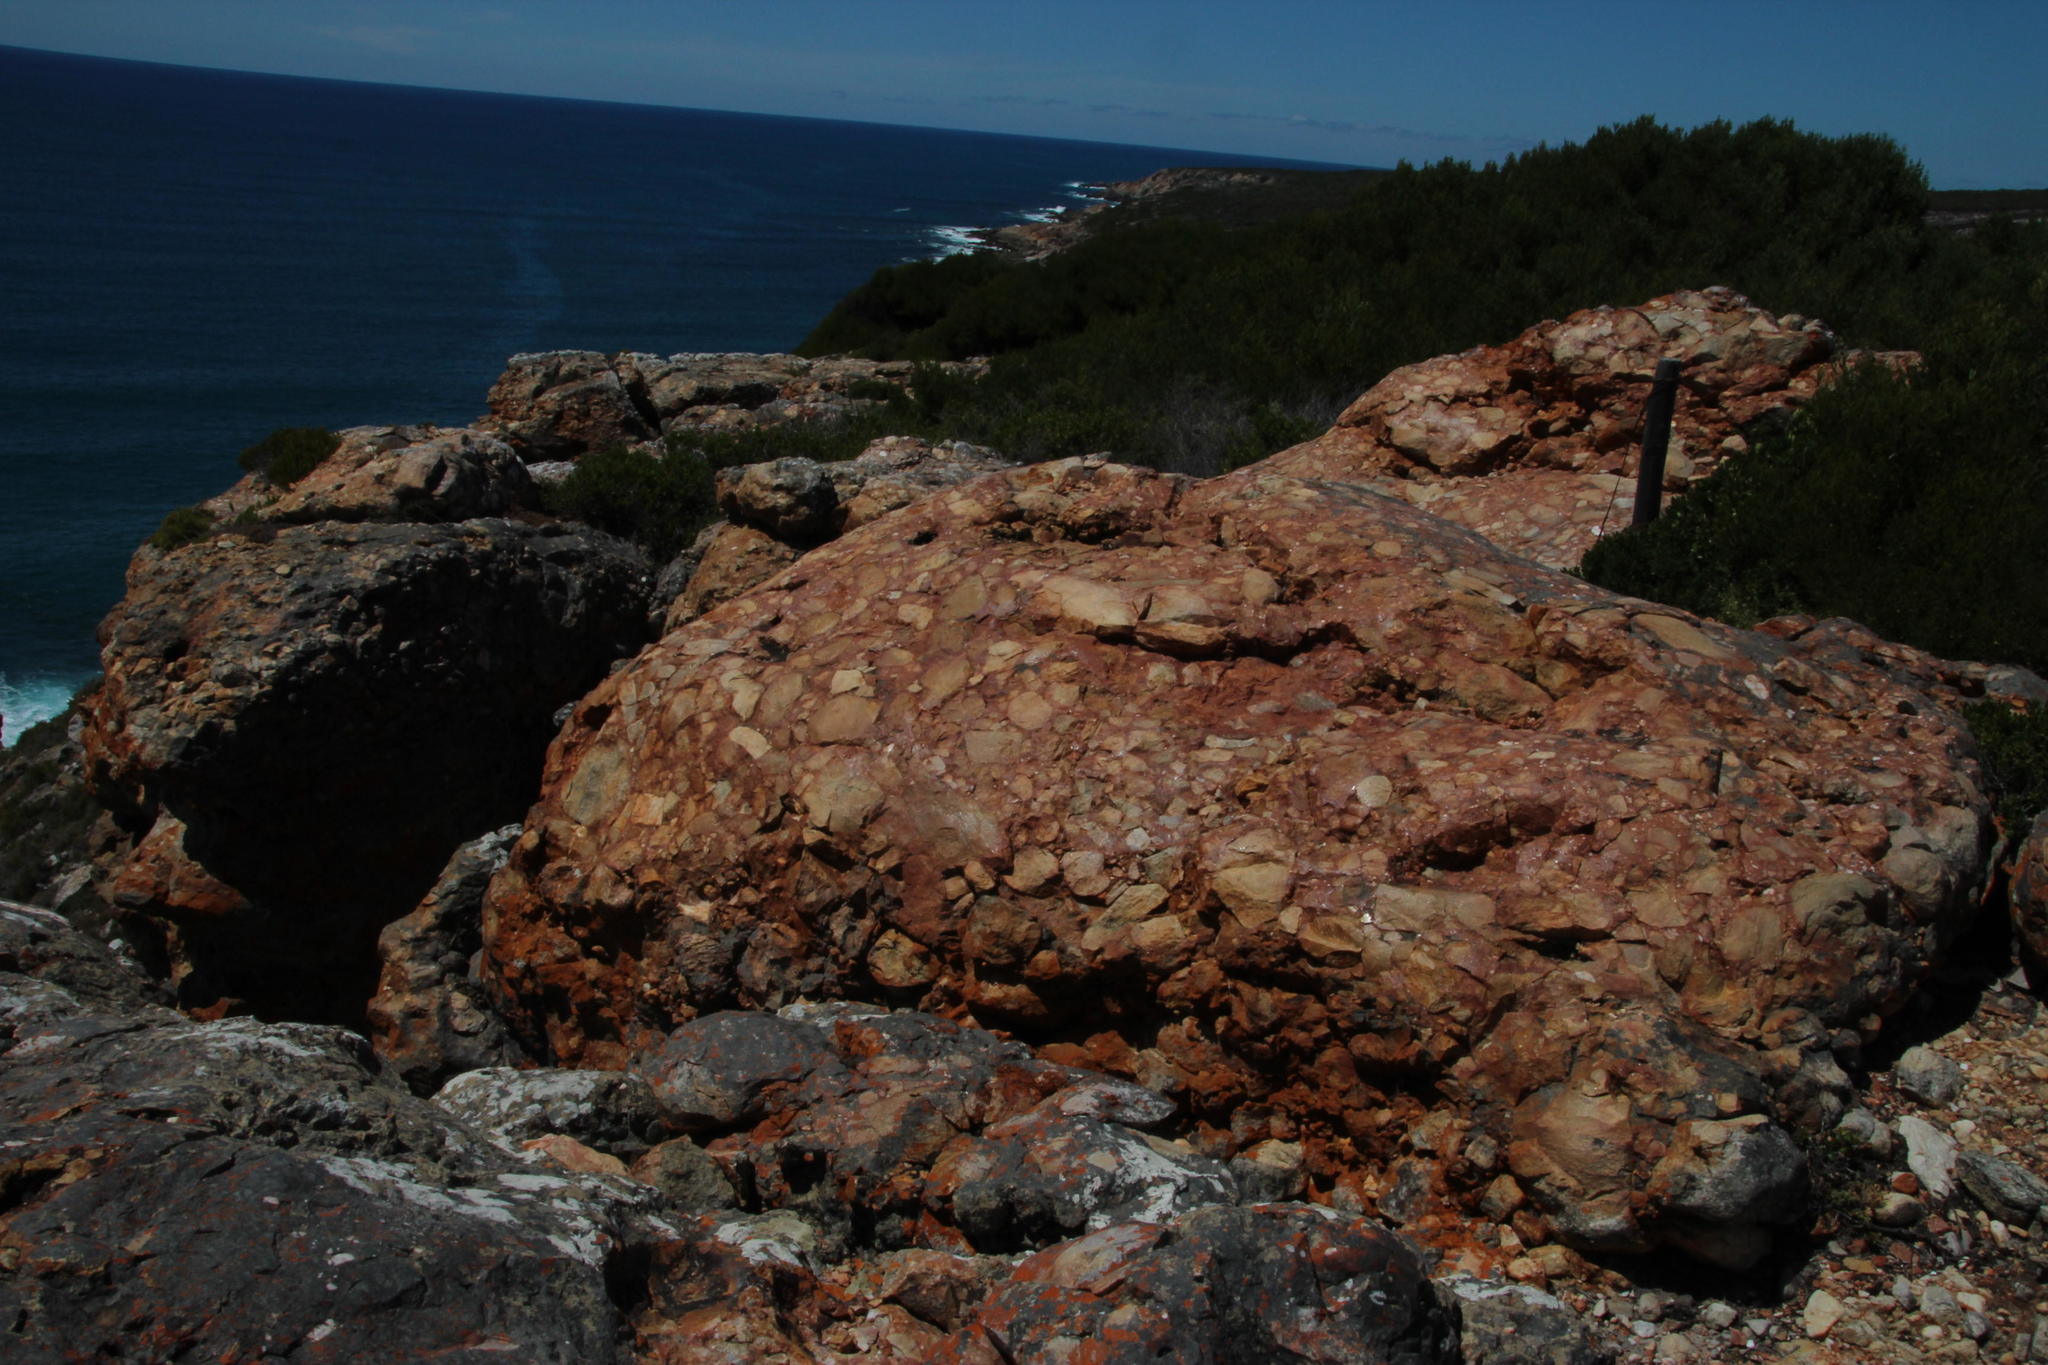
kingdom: Plantae
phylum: Tracheophyta
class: Magnoliopsida
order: Proteales
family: Proteaceae
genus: Leucadendron
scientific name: Leucadendron salignum
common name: Common sunshine conebush
